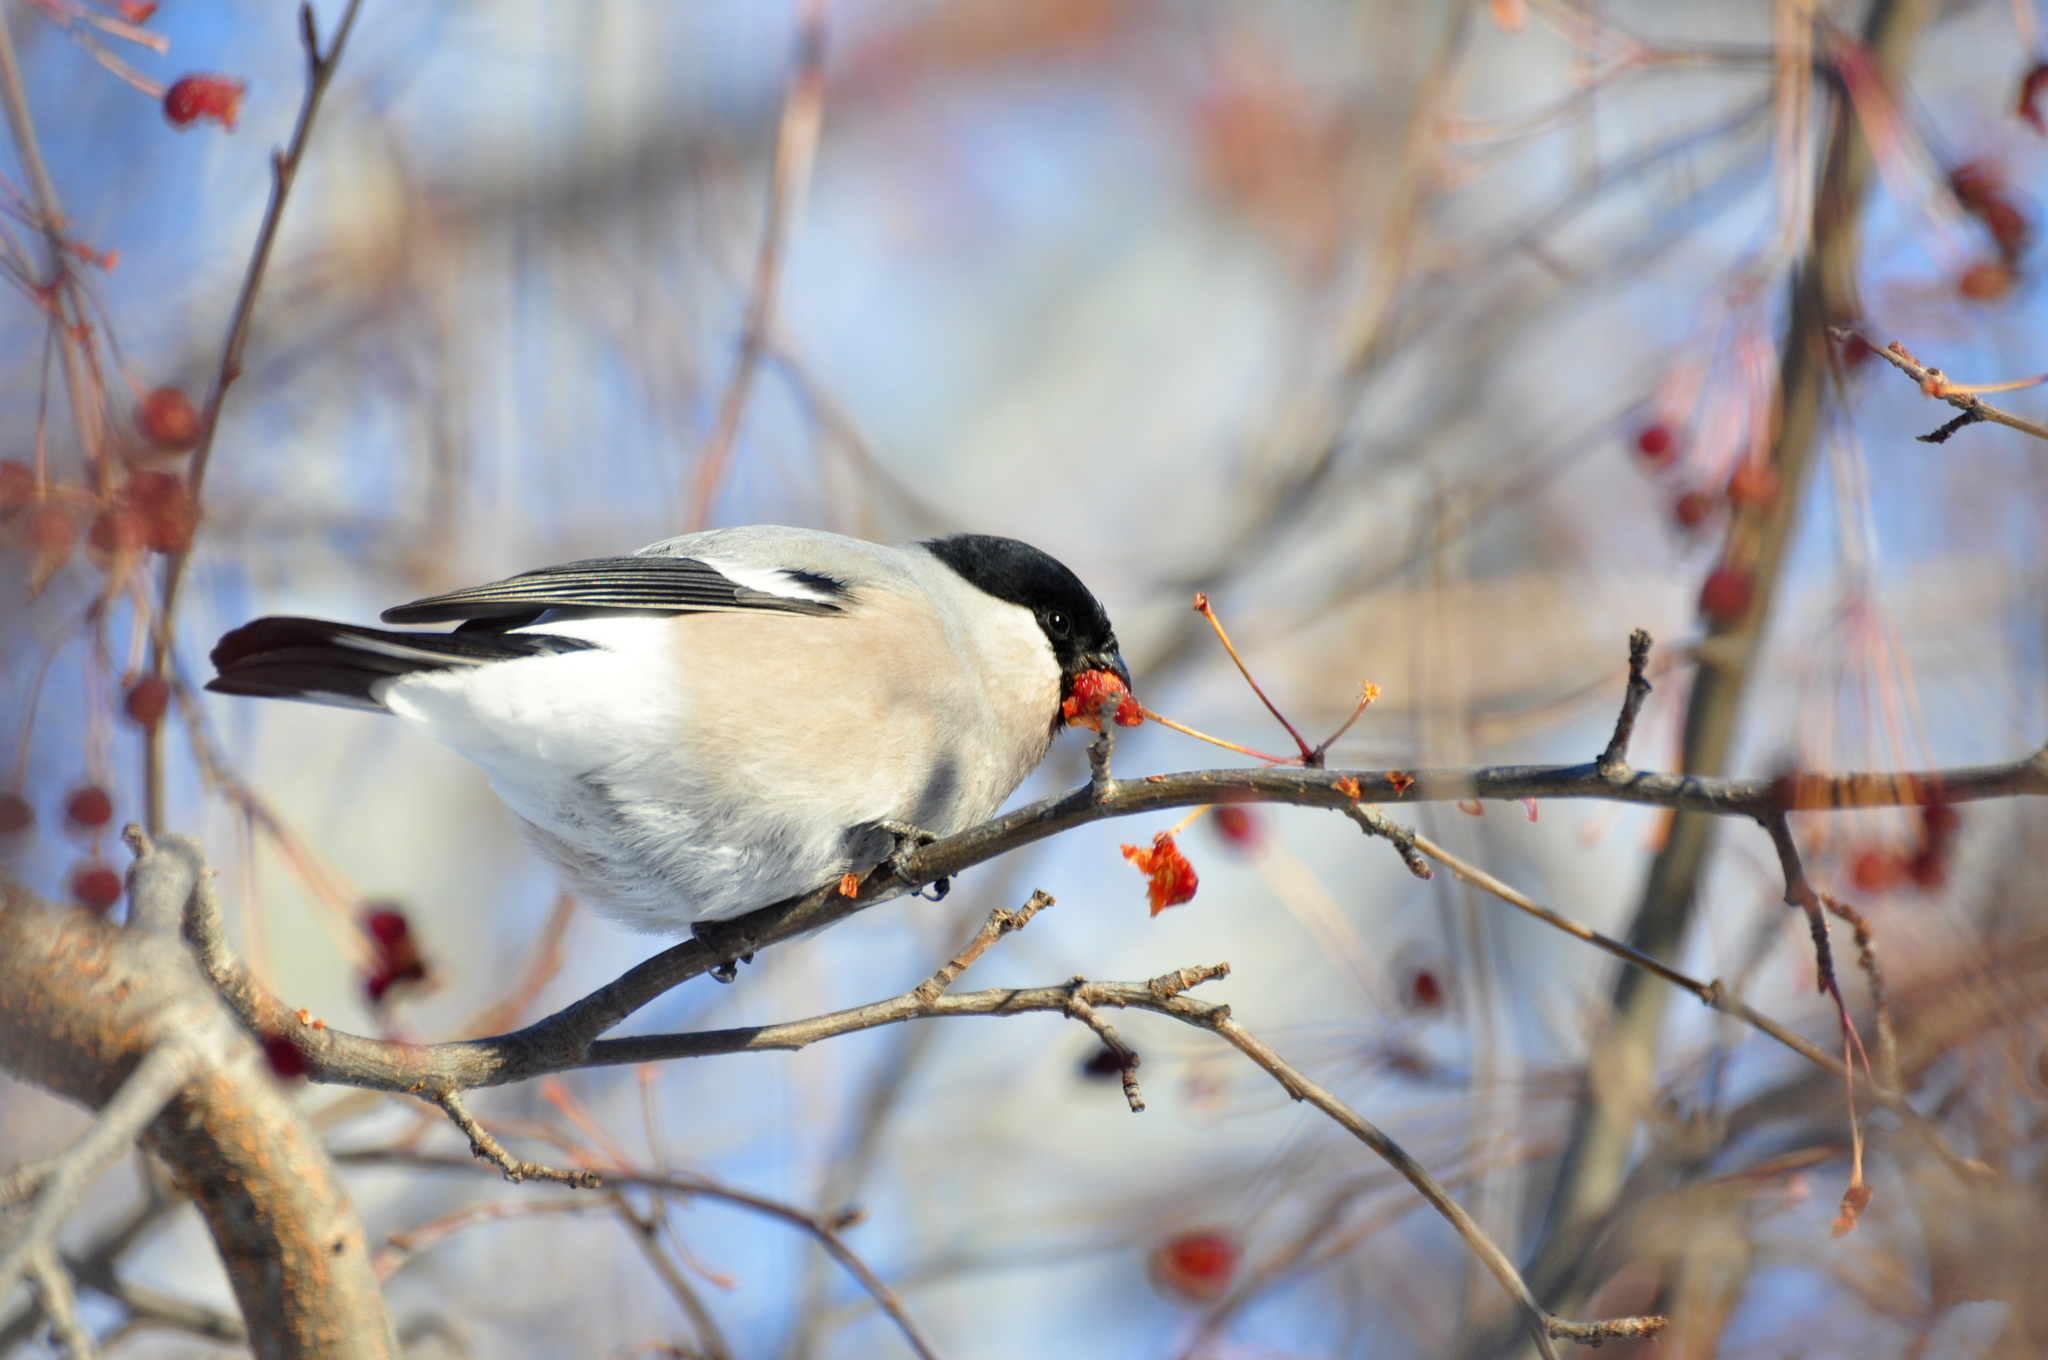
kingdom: Animalia
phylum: Chordata
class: Aves
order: Passeriformes
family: Fringillidae
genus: Pyrrhula
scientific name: Pyrrhula pyrrhula
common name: Eurasian bullfinch
